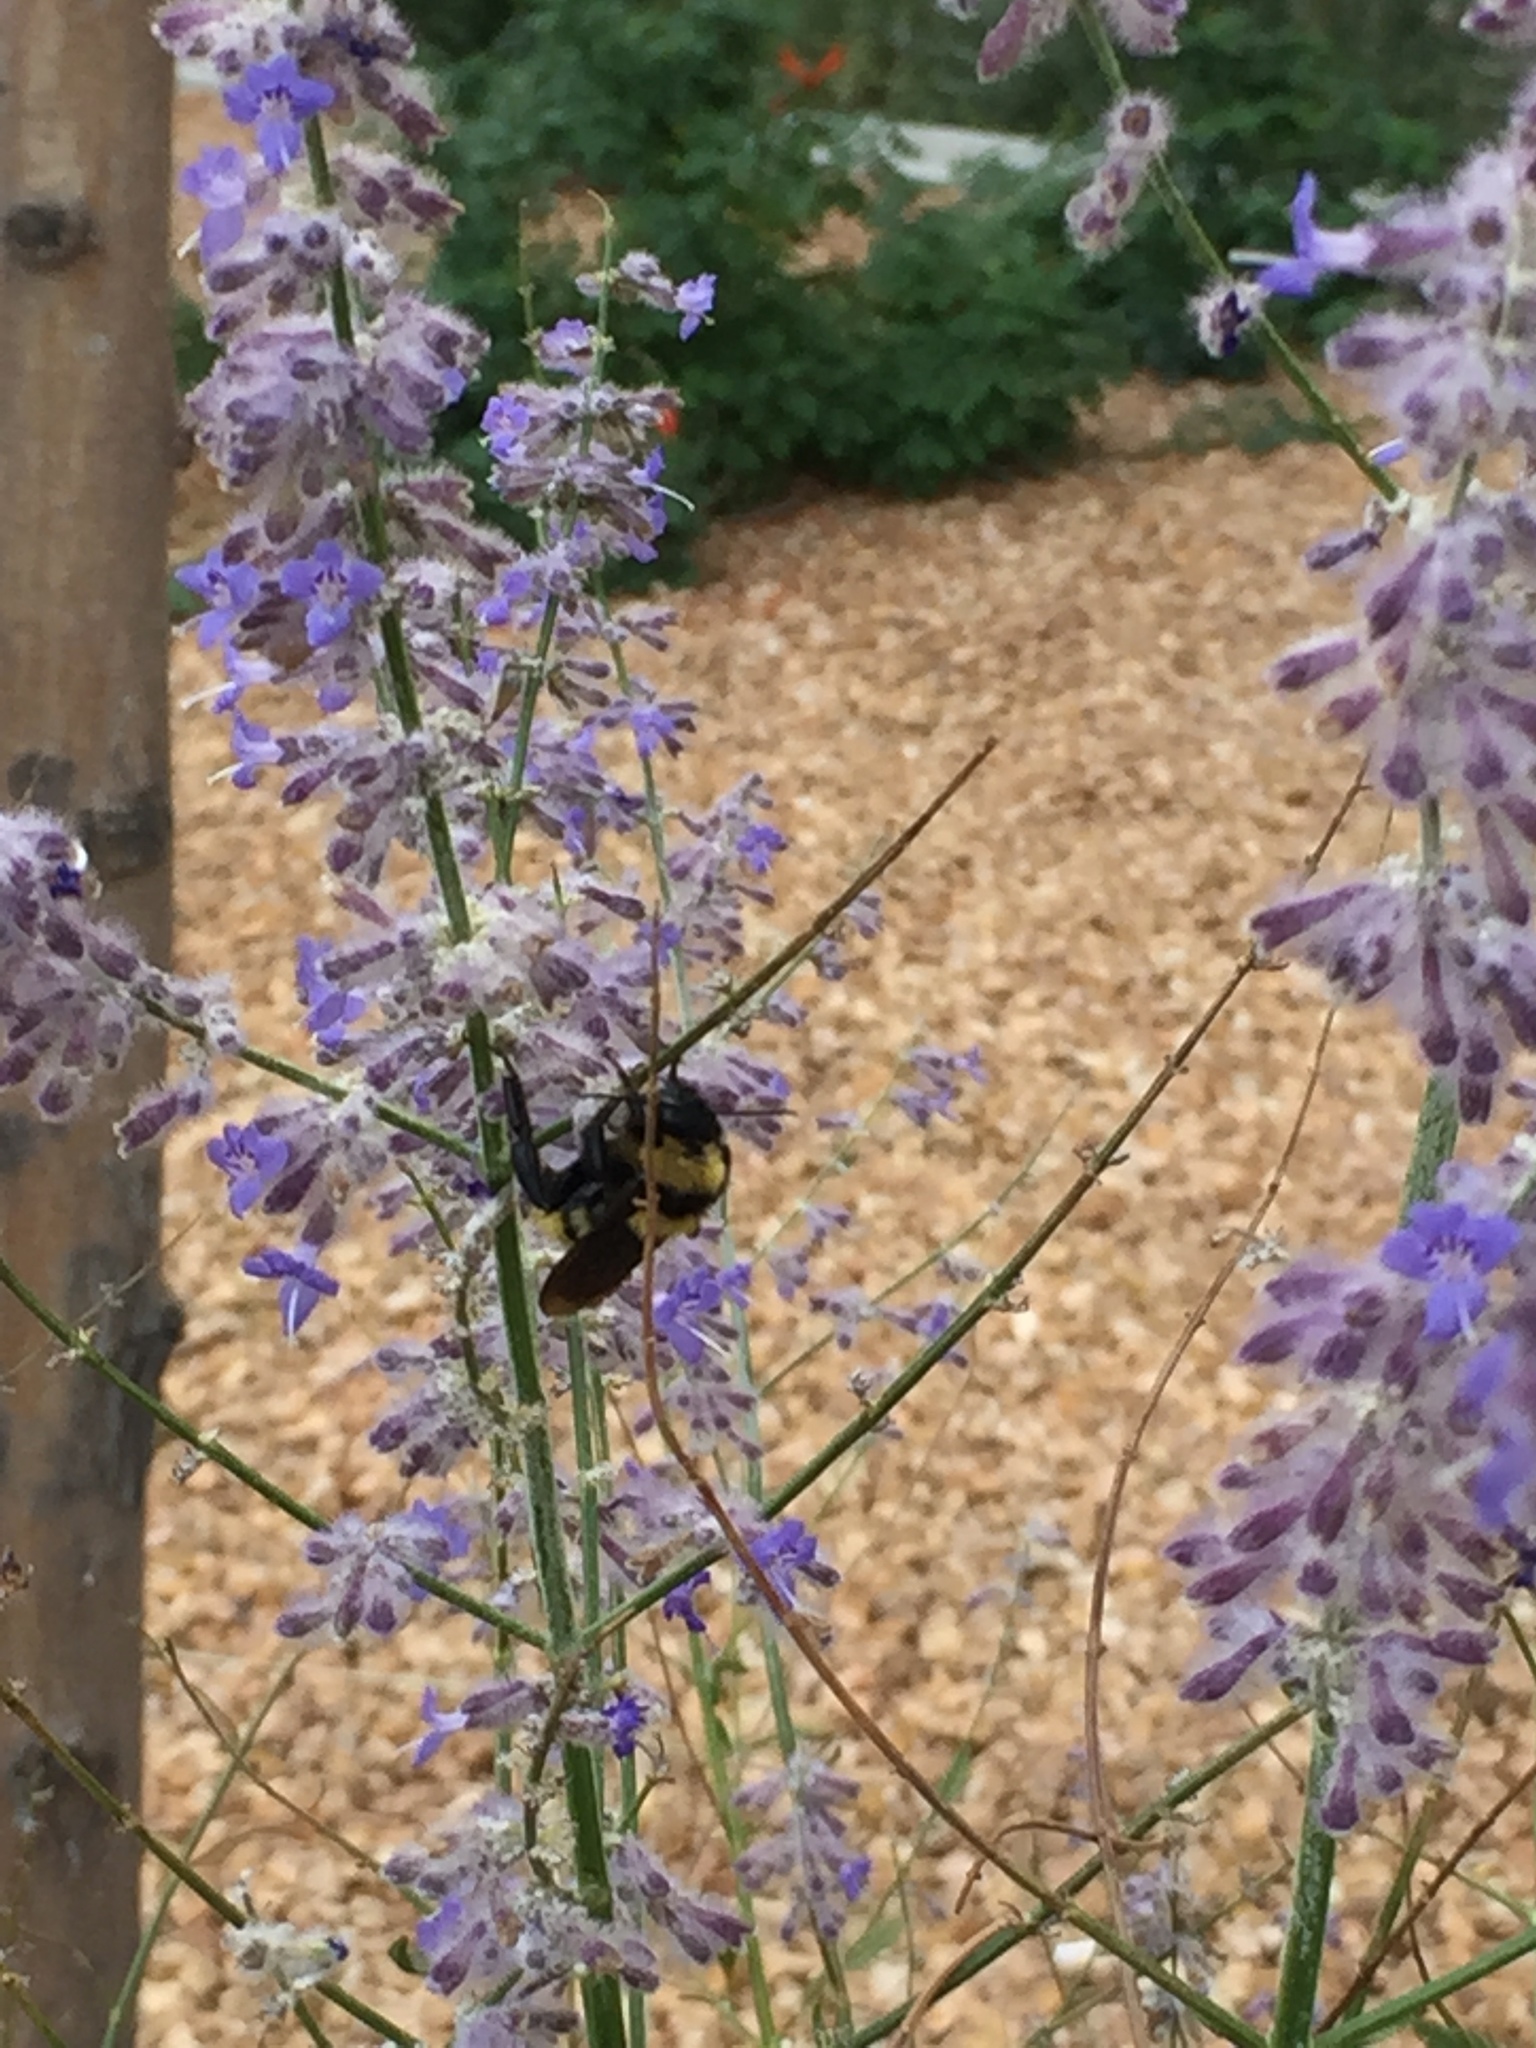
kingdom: Animalia
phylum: Arthropoda
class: Insecta
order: Hymenoptera
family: Apidae
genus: Bombus
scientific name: Bombus sonorus
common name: Sonoran bumble bee
